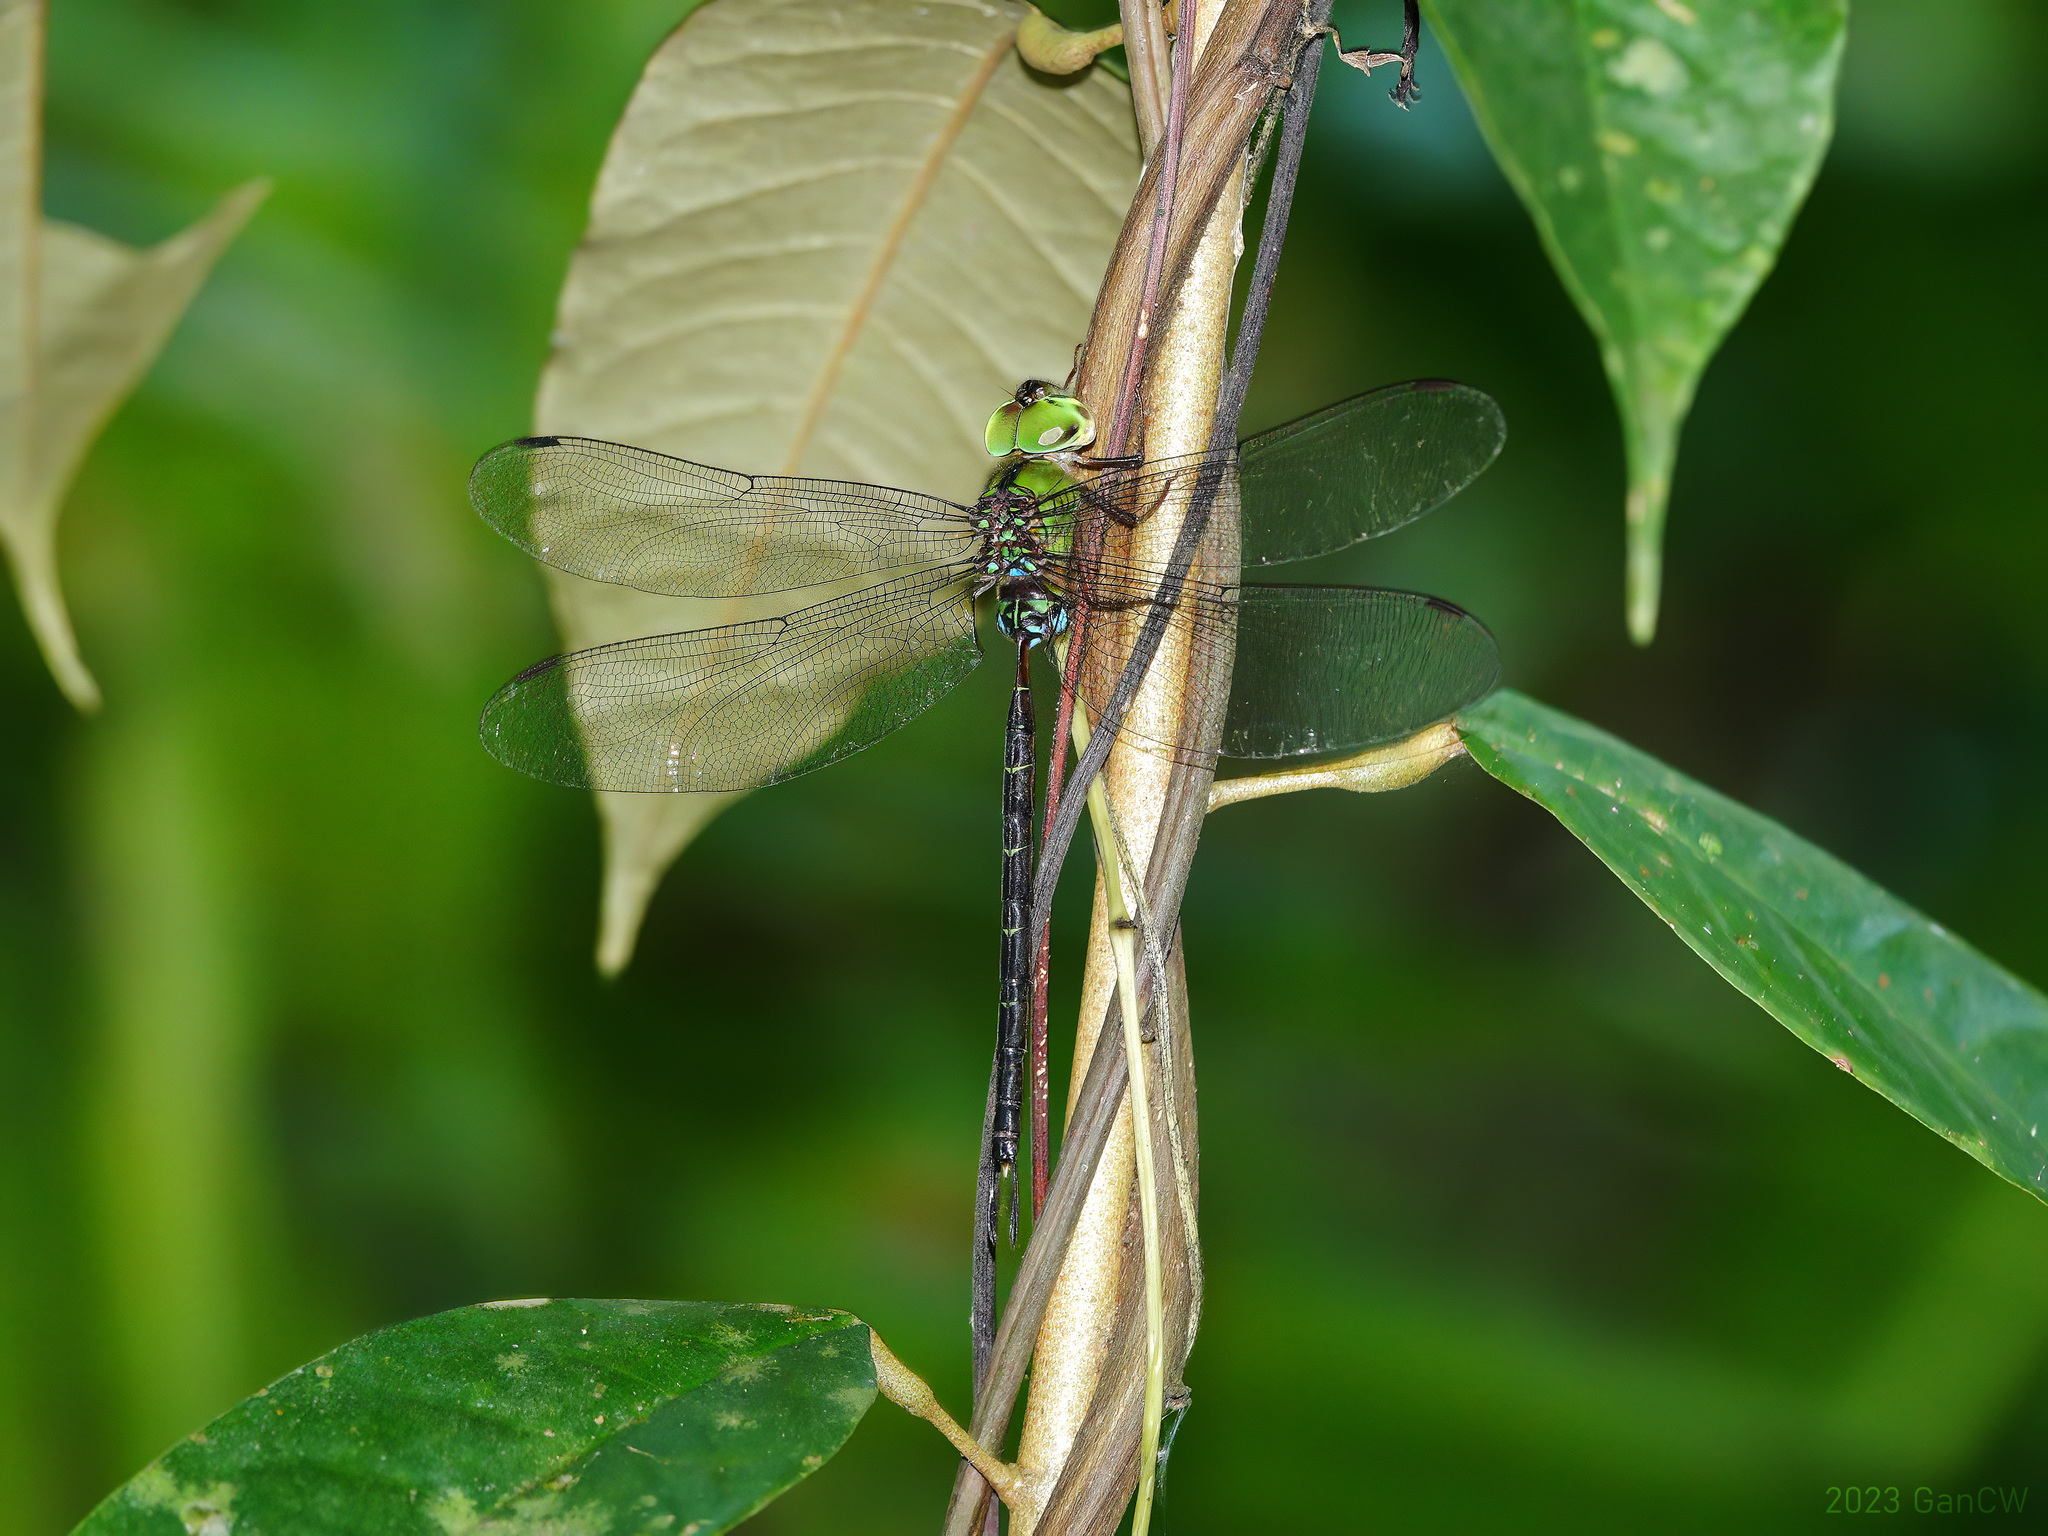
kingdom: Animalia
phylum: Arthropoda
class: Insecta
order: Odonata
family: Aeshnidae
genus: Gynacantha
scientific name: Gynacantha dohrni
